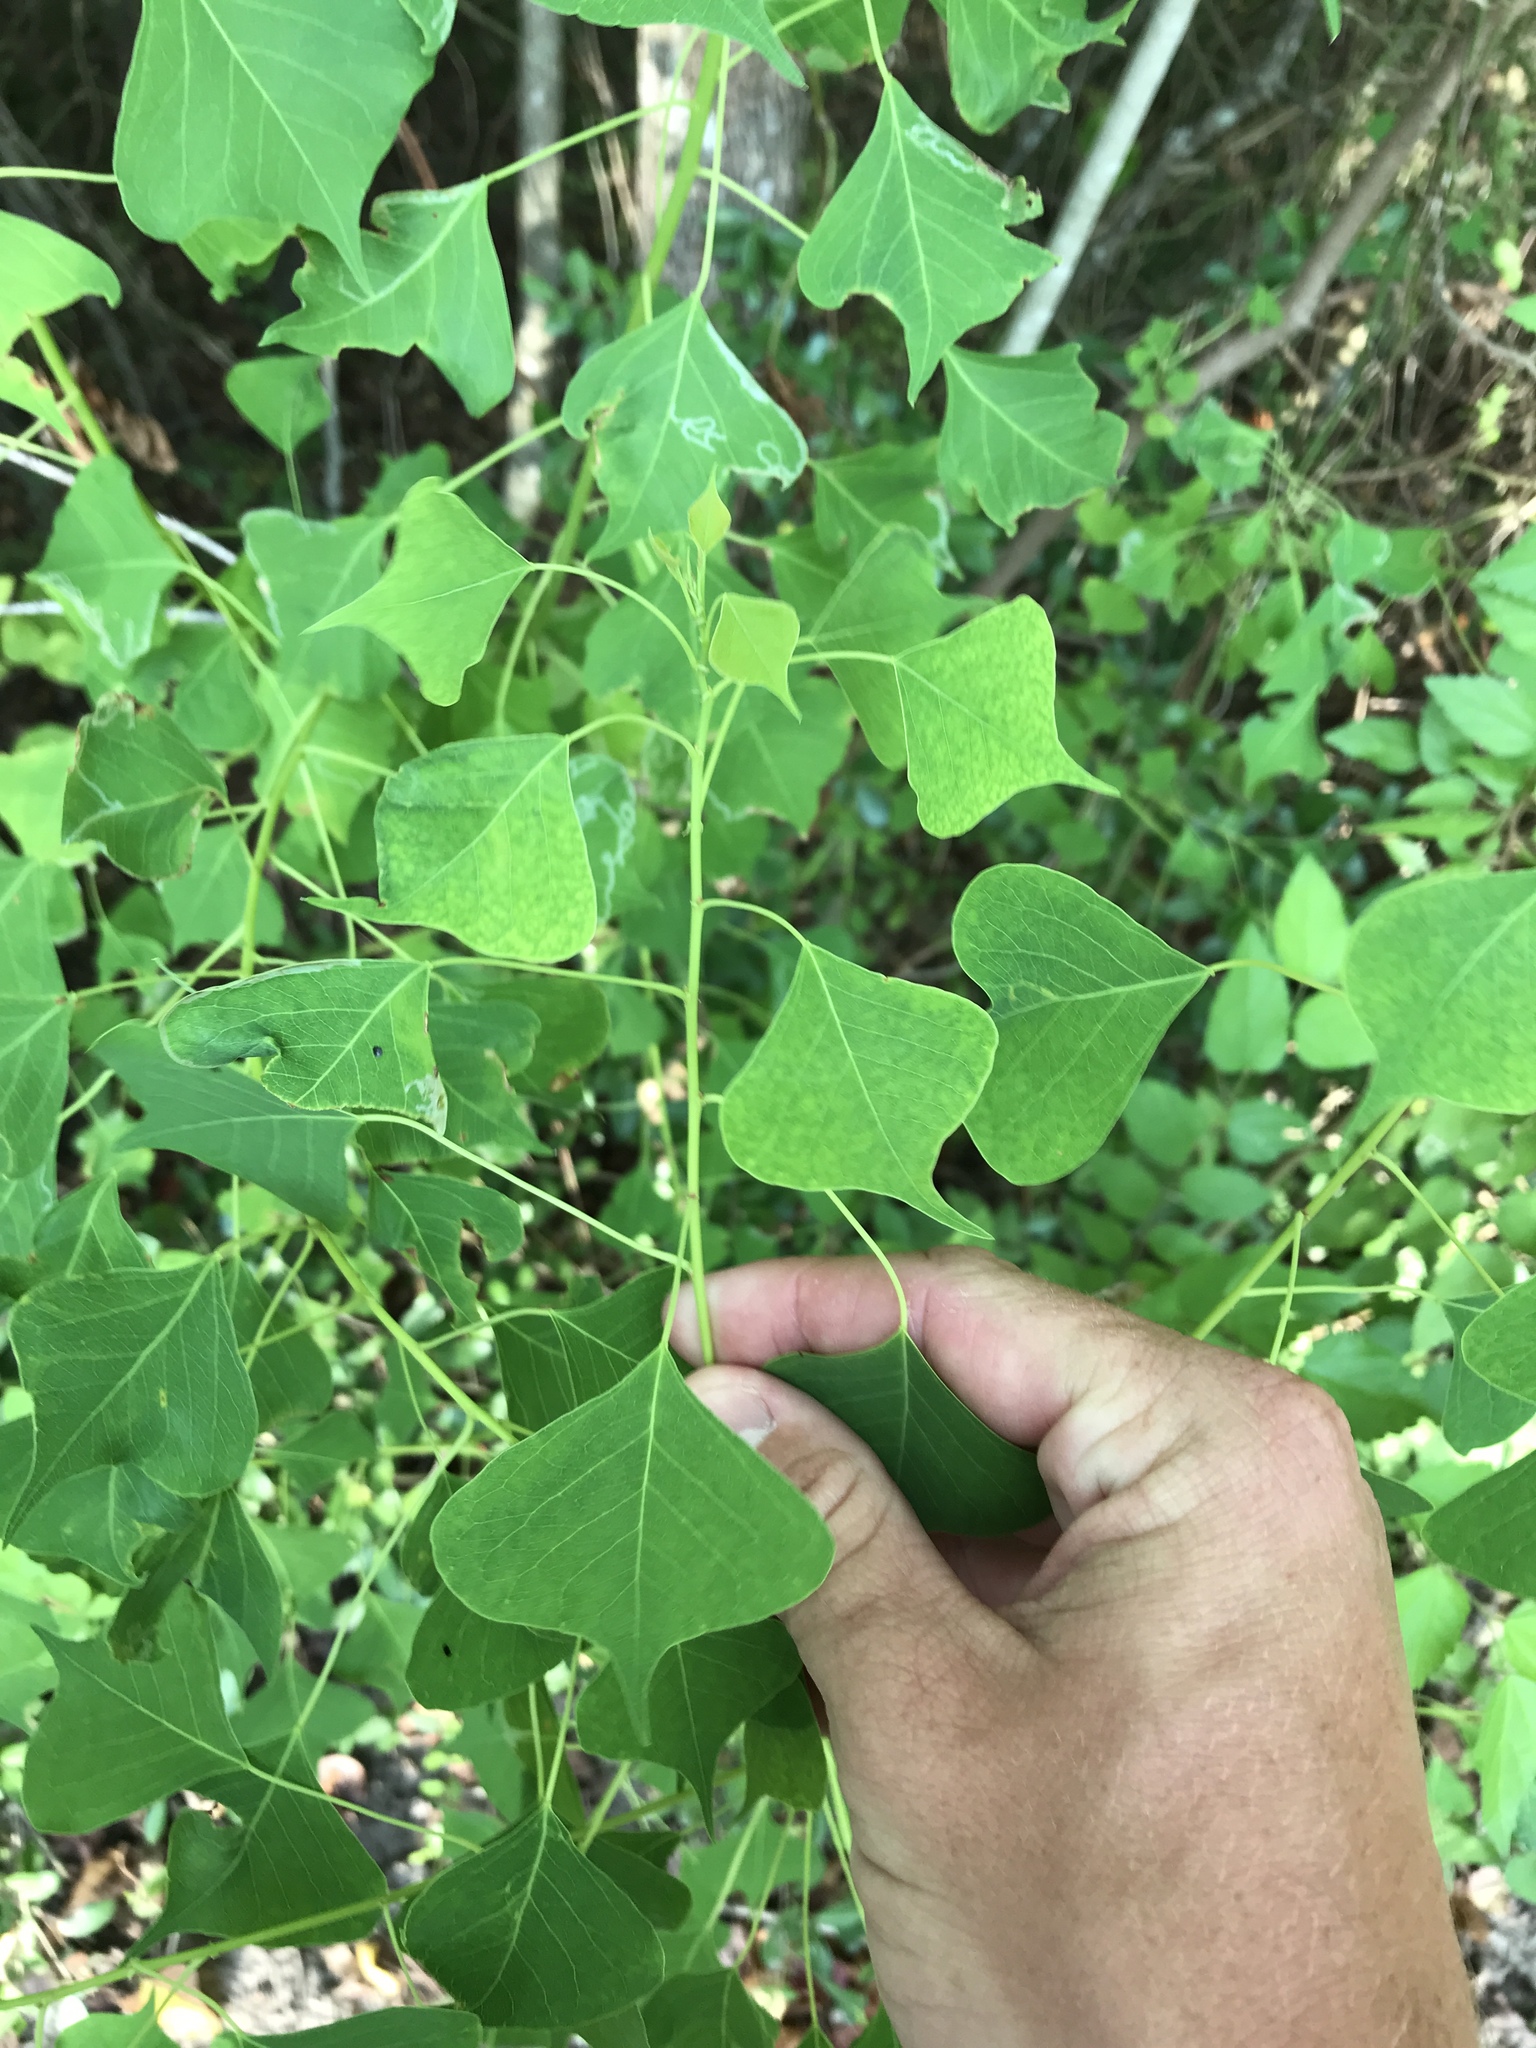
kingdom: Plantae
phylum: Tracheophyta
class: Magnoliopsida
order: Malpighiales
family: Euphorbiaceae
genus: Triadica
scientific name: Triadica sebifera
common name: Chinese tallow
